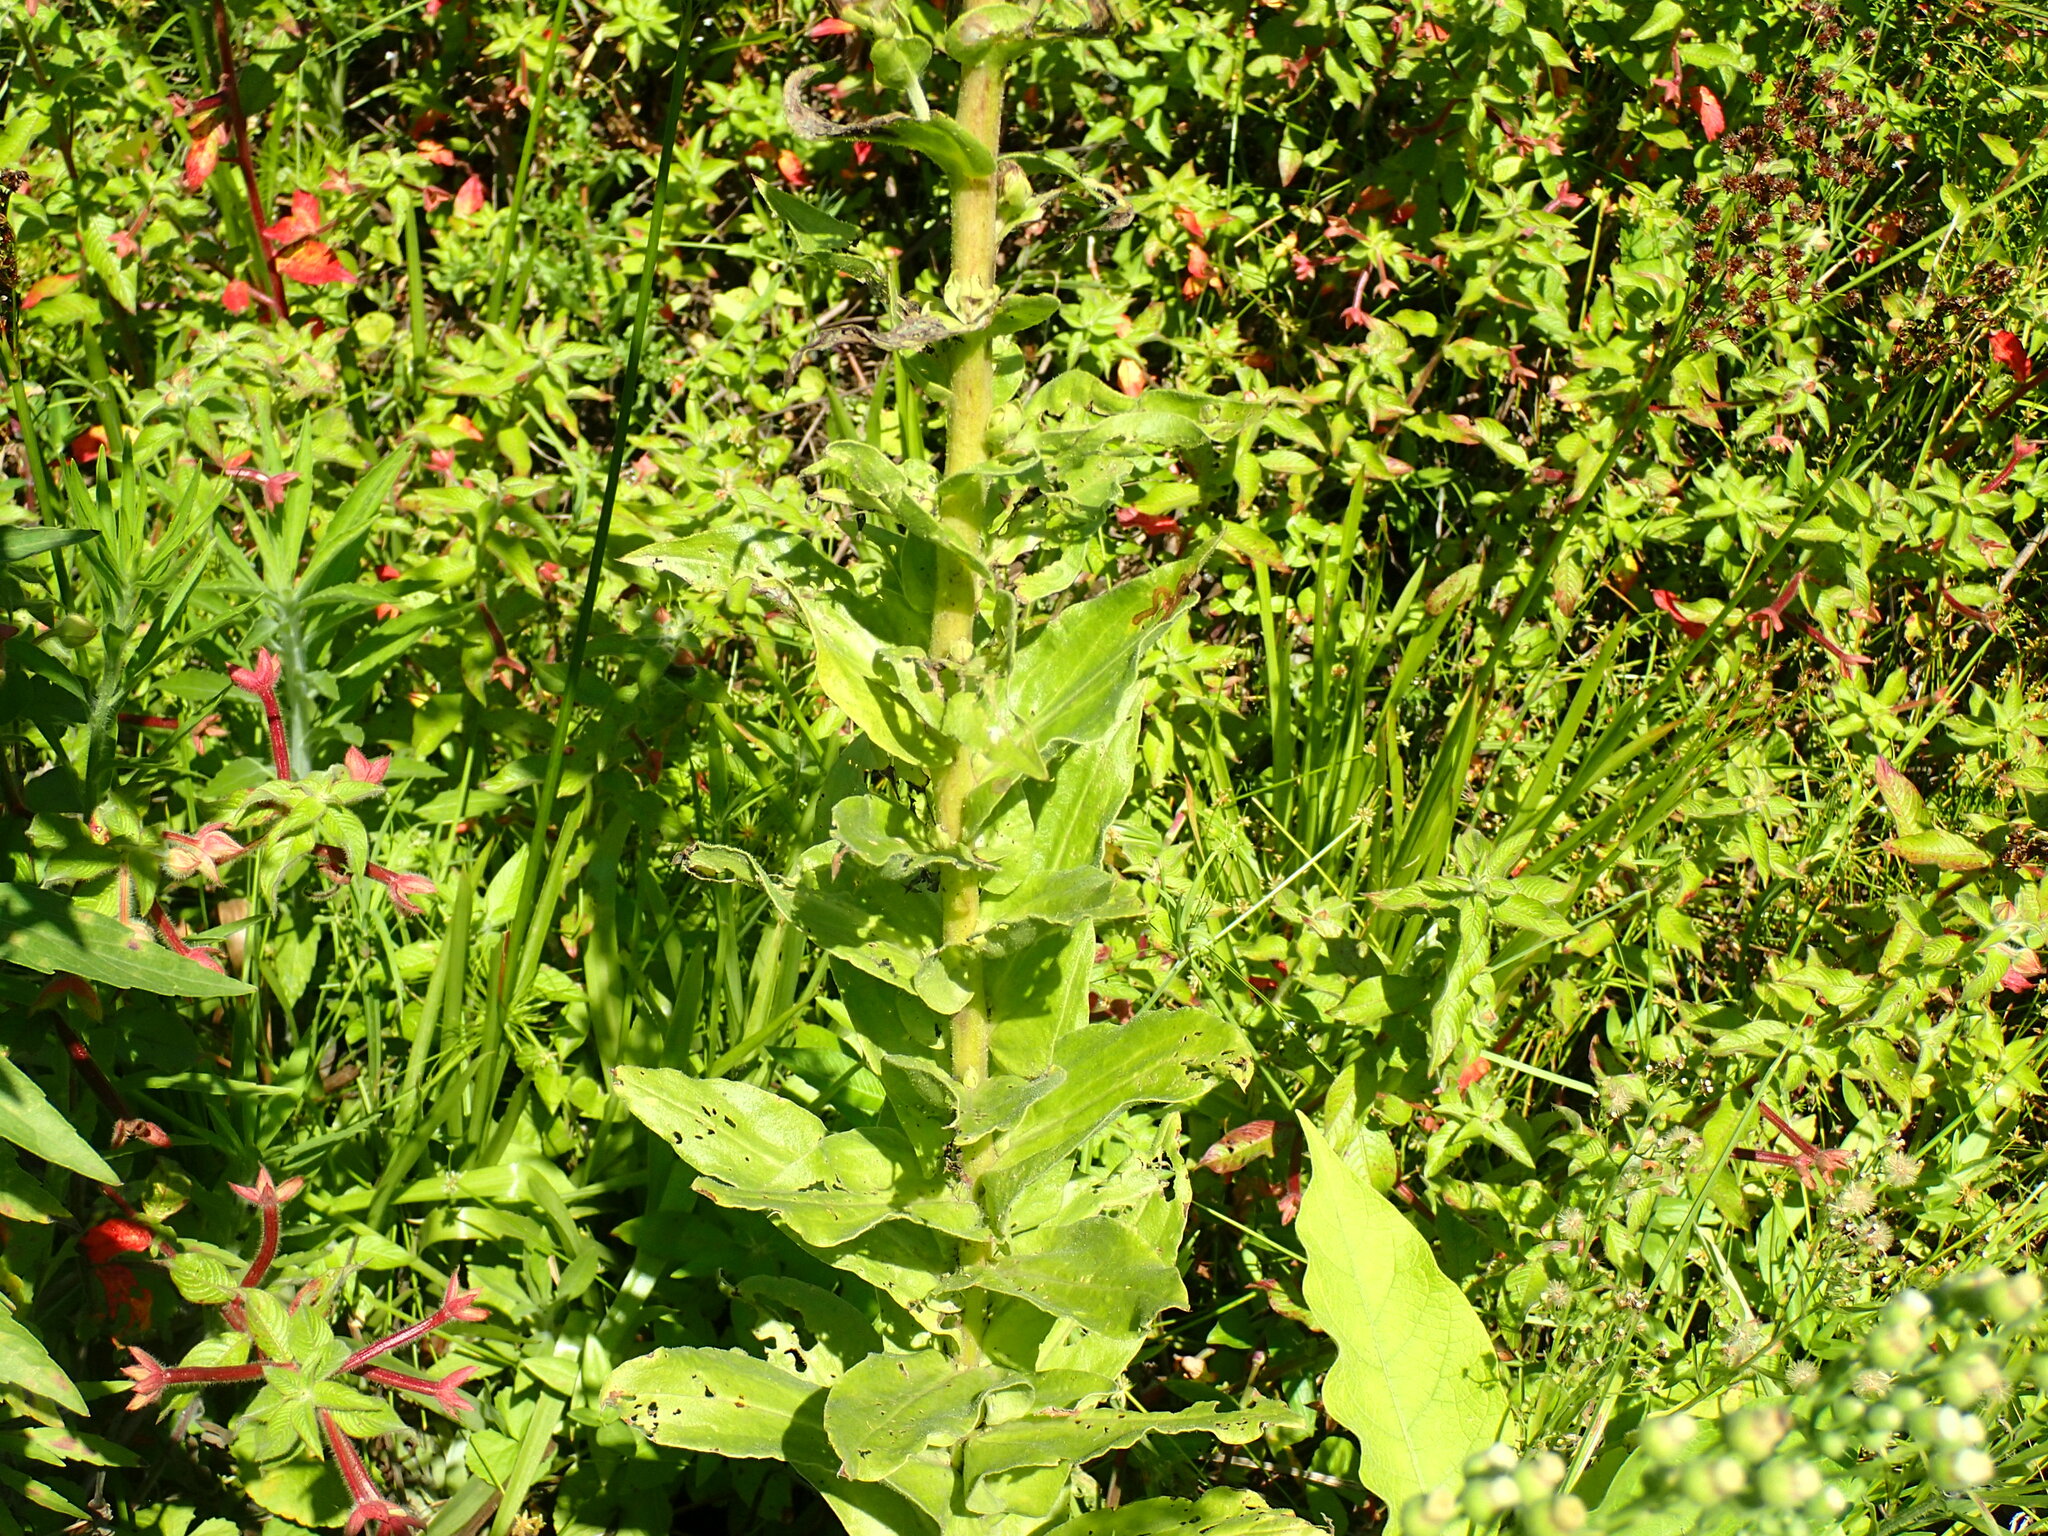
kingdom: Plantae
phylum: Tracheophyta
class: Magnoliopsida
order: Asterales
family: Asteraceae
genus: Helichrysum
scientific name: Helichrysum ruderale
